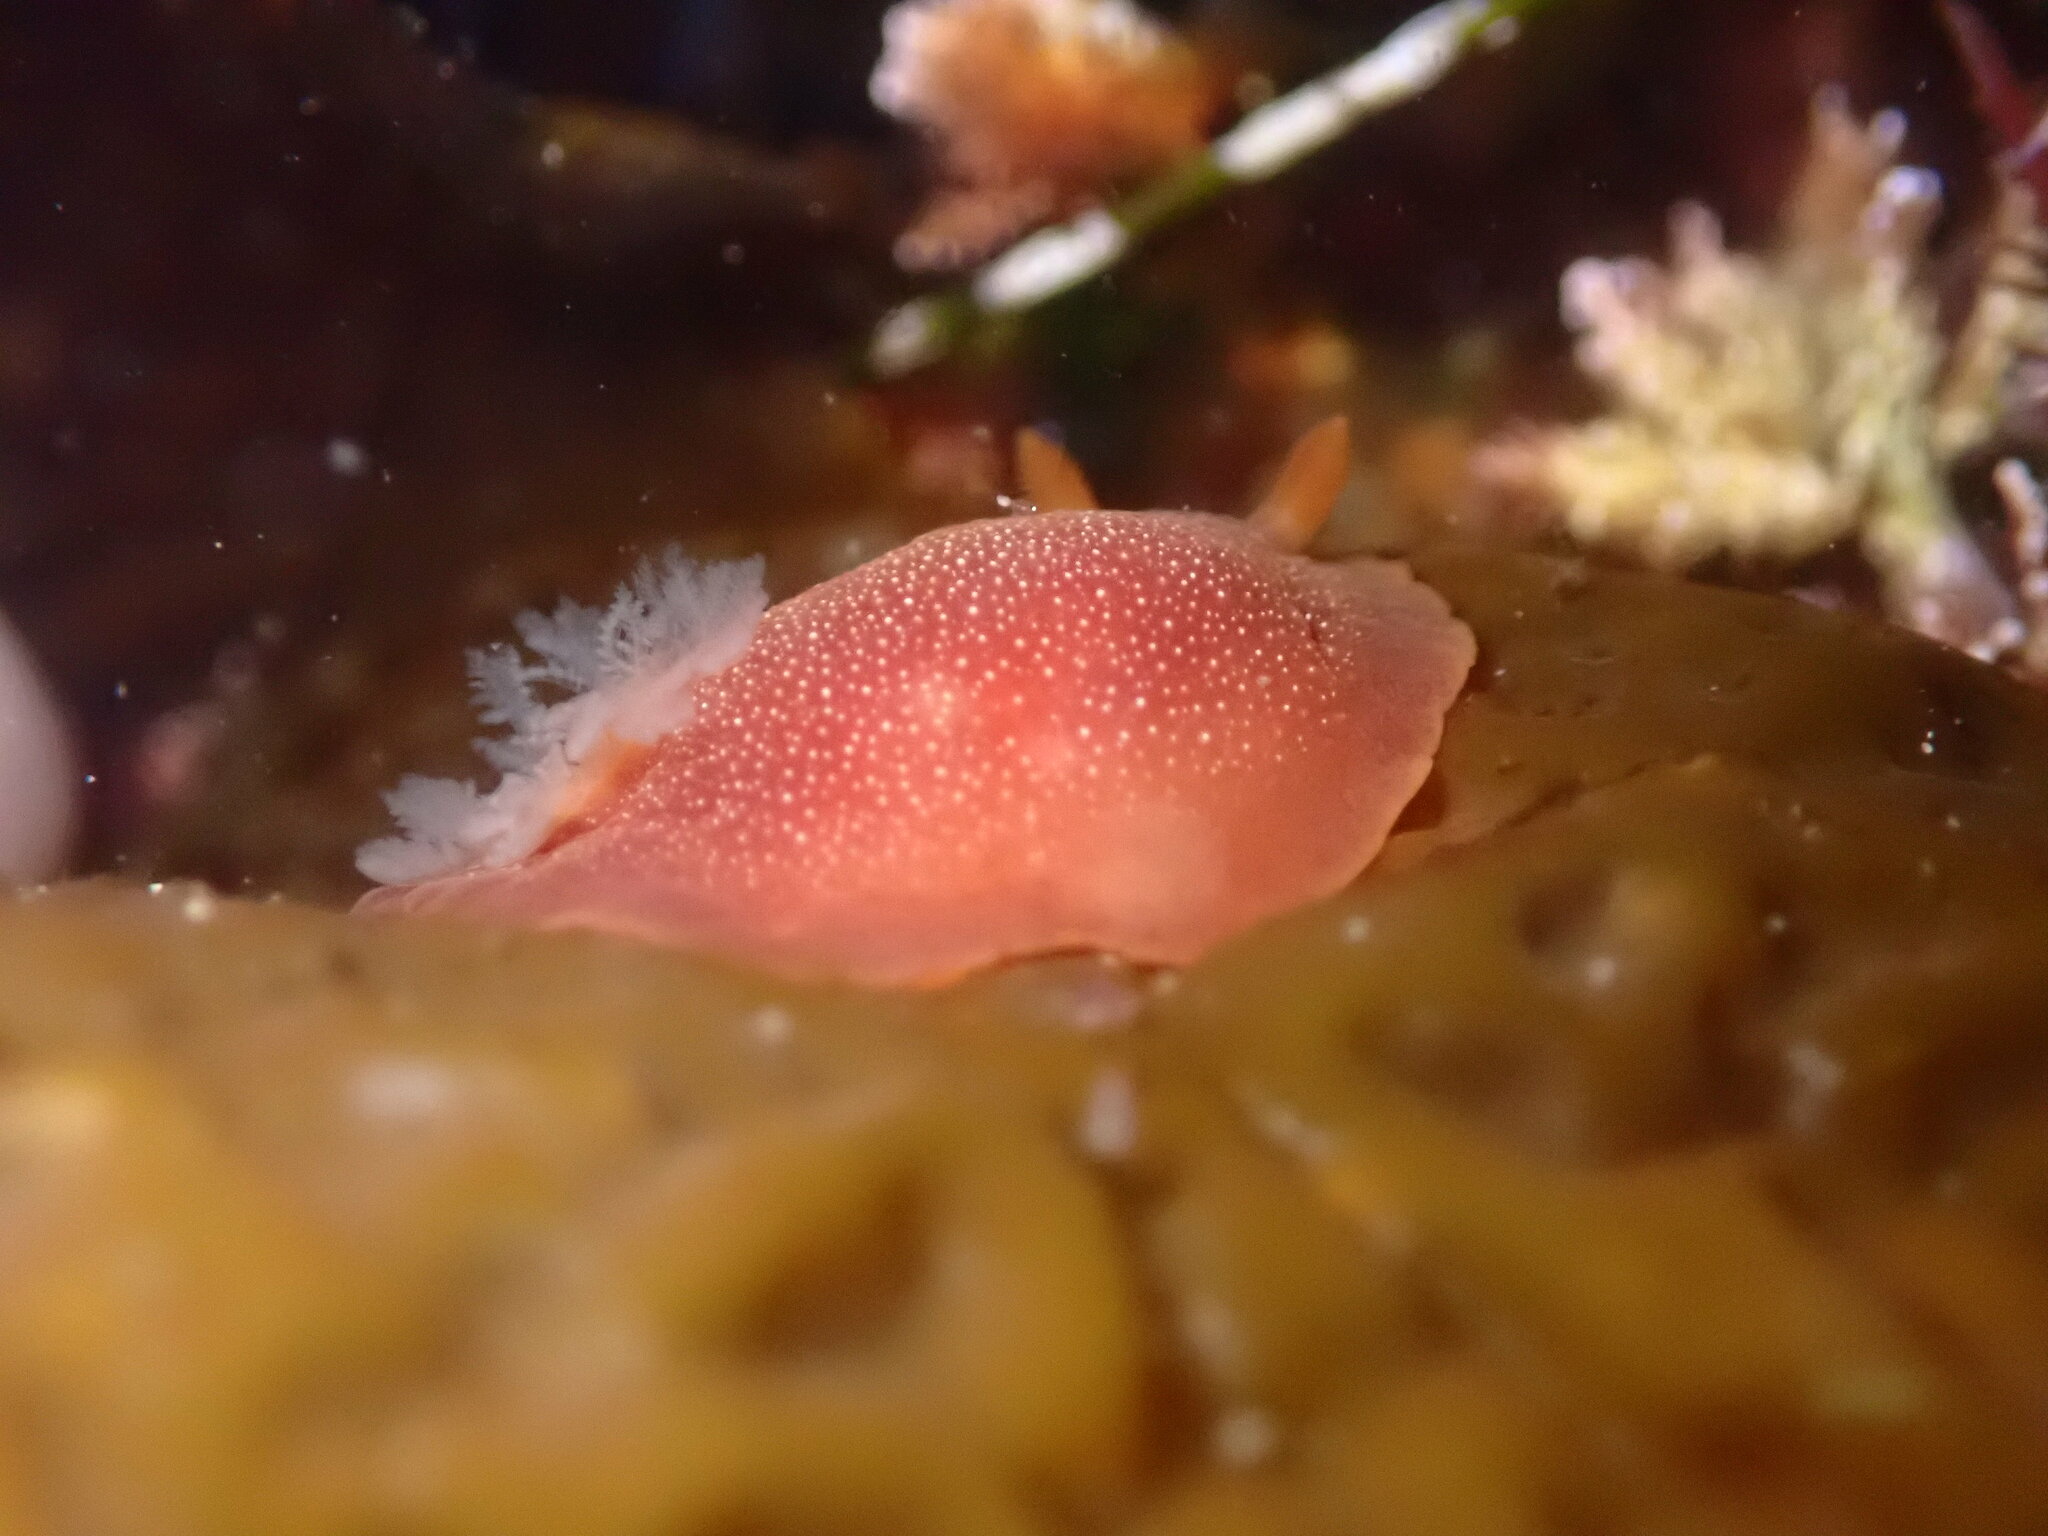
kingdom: Animalia
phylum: Mollusca
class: Gastropoda
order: Nudibranchia
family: Dendrodorididae
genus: Doriopsilla
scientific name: Doriopsilla albopunctata
